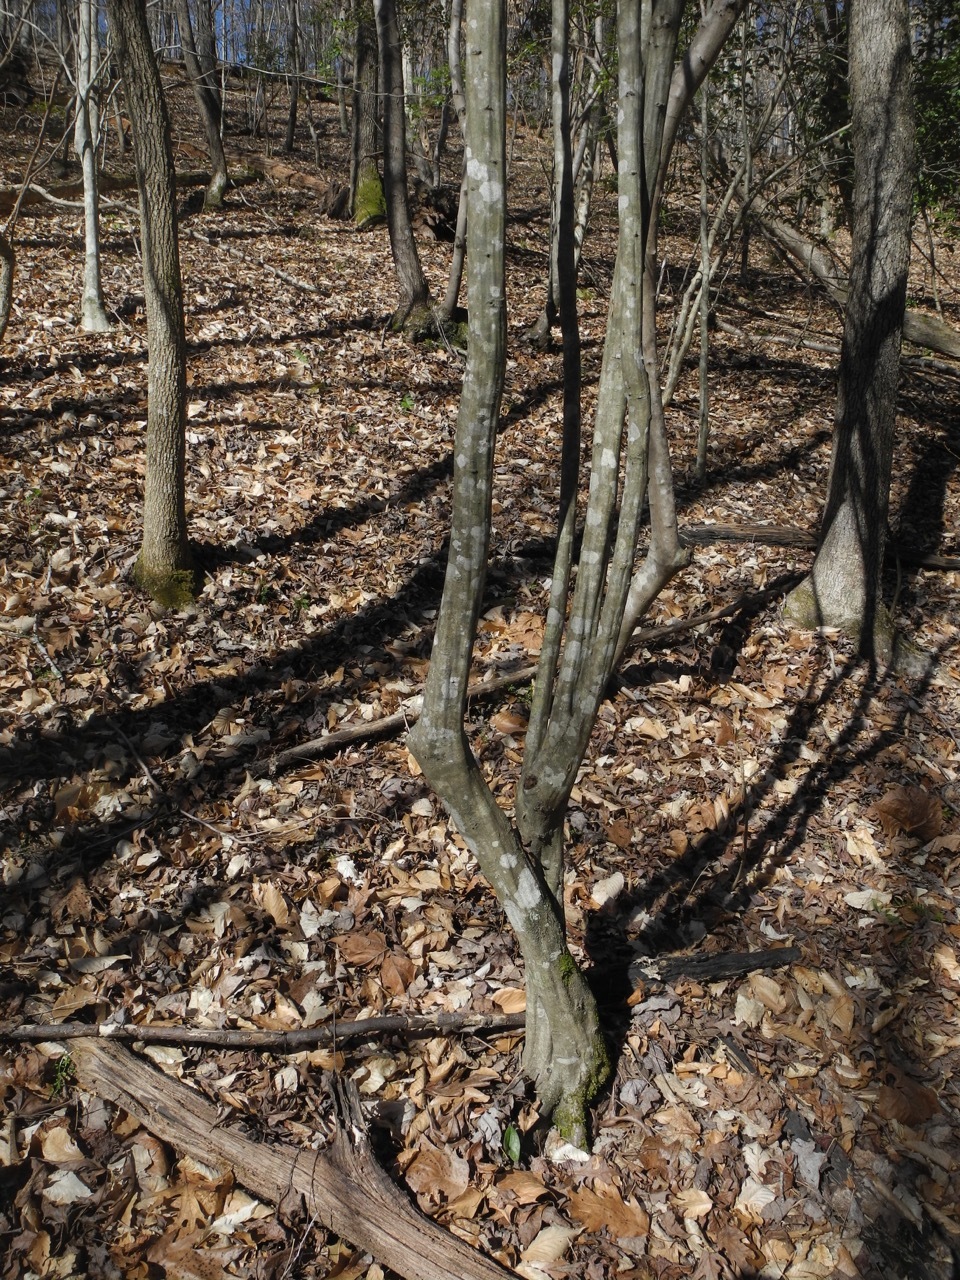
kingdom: Plantae
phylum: Tracheophyta
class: Magnoliopsida
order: Fagales
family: Betulaceae
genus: Carpinus
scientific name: Carpinus caroliniana
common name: American hornbeam
